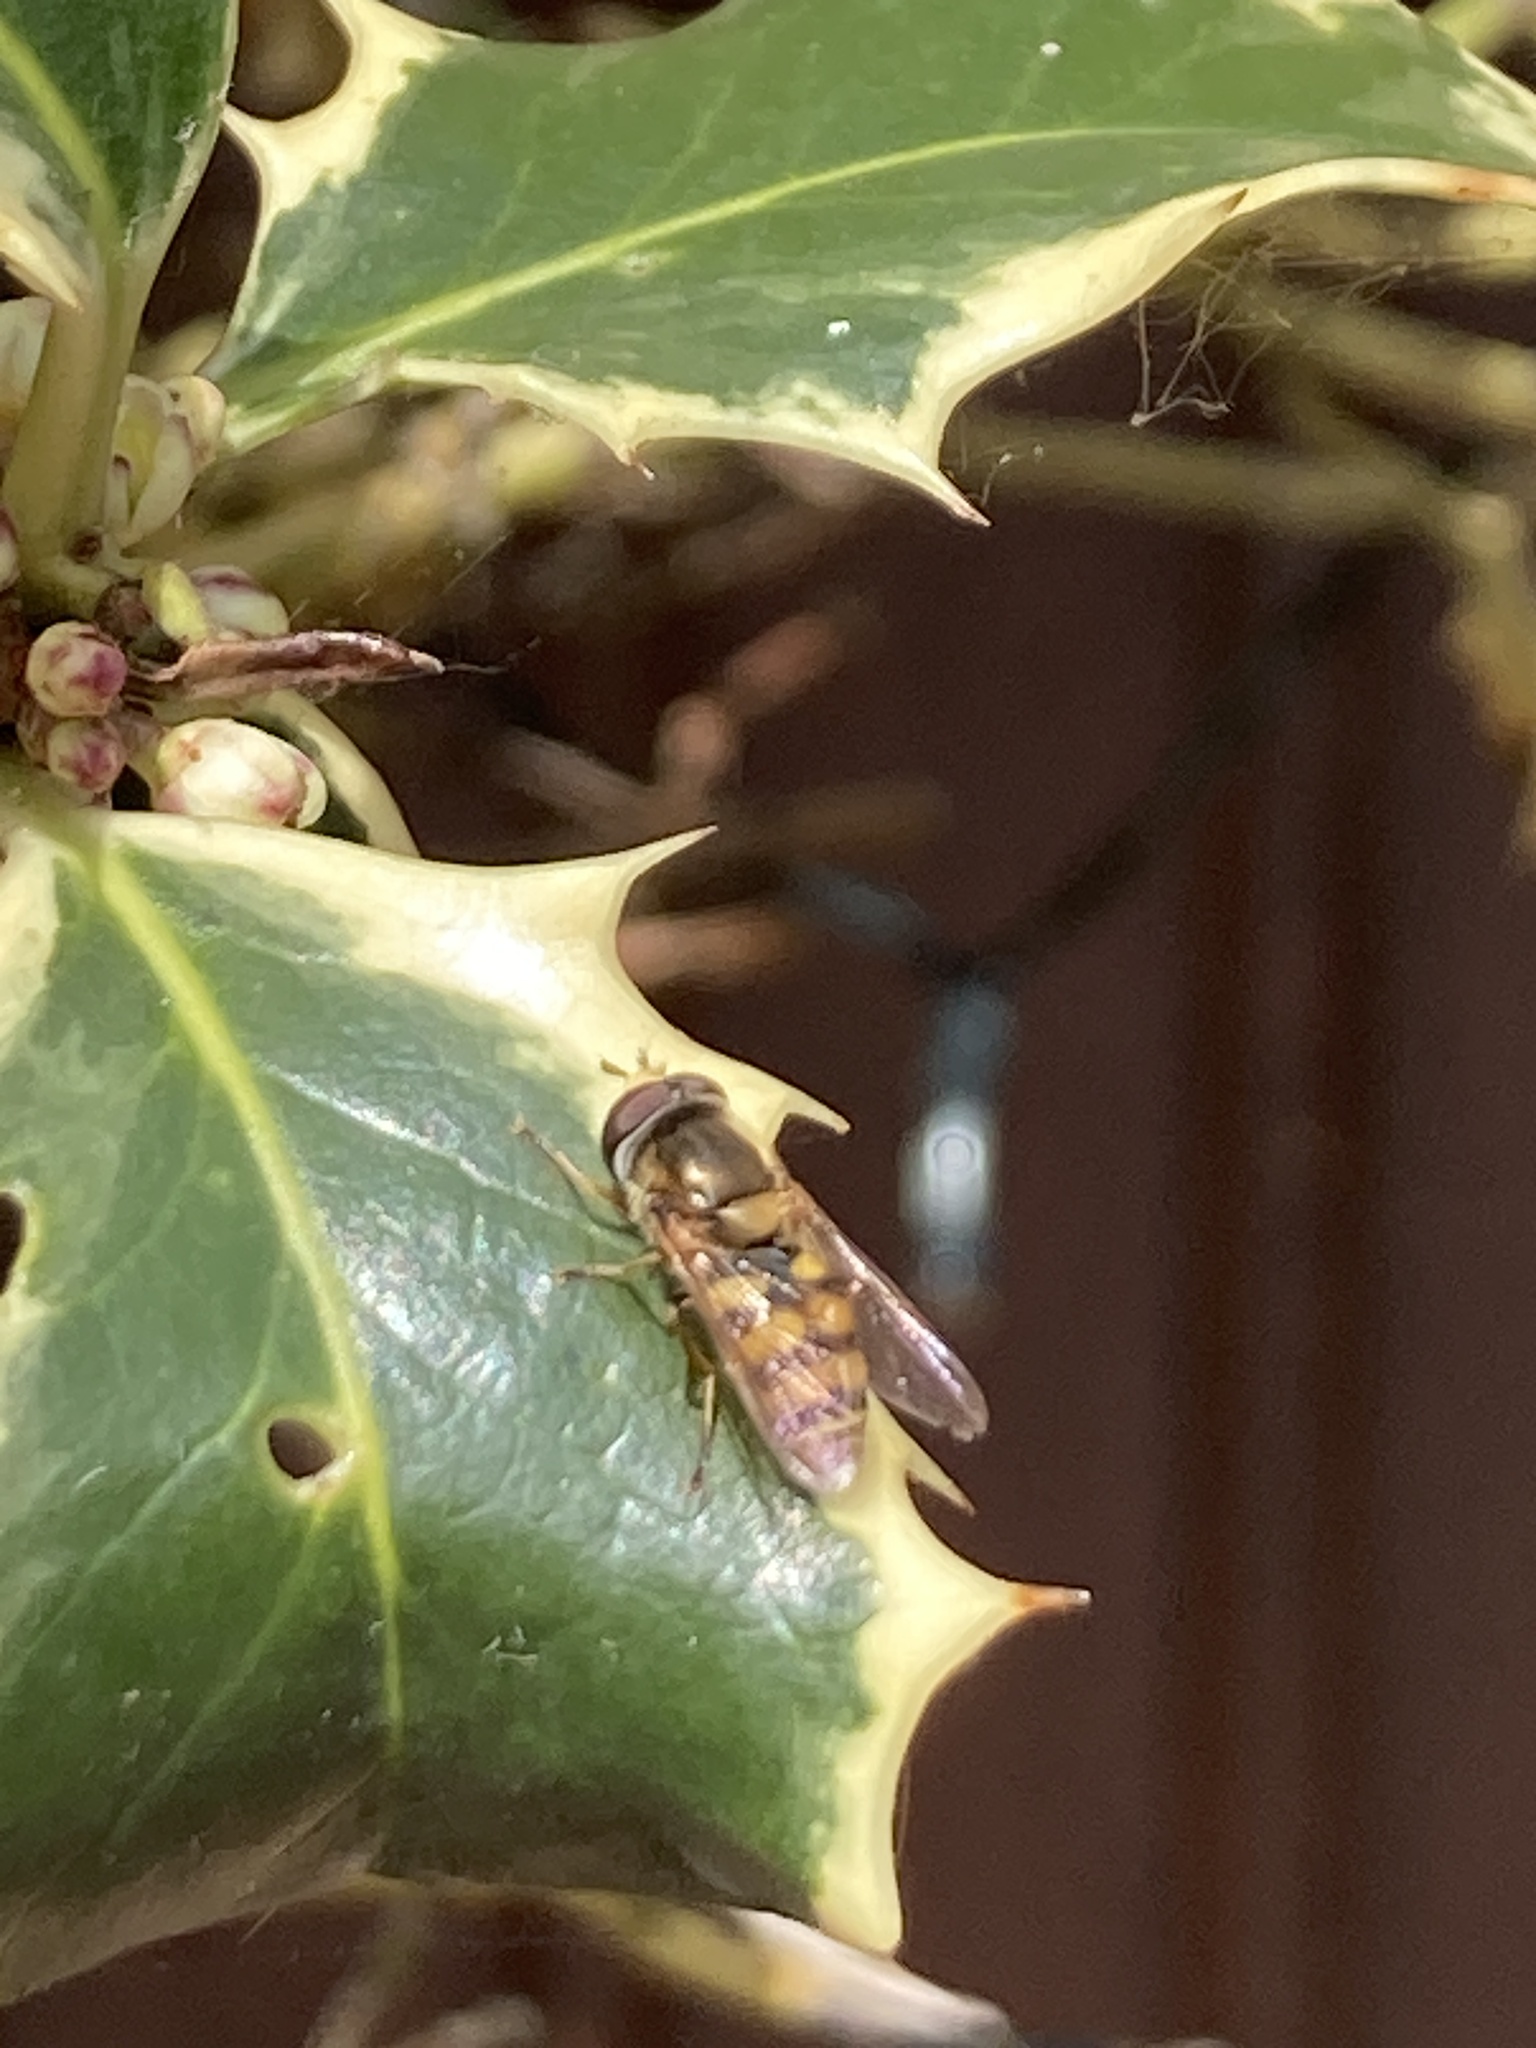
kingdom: Animalia
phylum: Arthropoda
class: Insecta
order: Diptera
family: Syrphidae
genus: Eupeodes
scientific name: Eupeodes corollae
